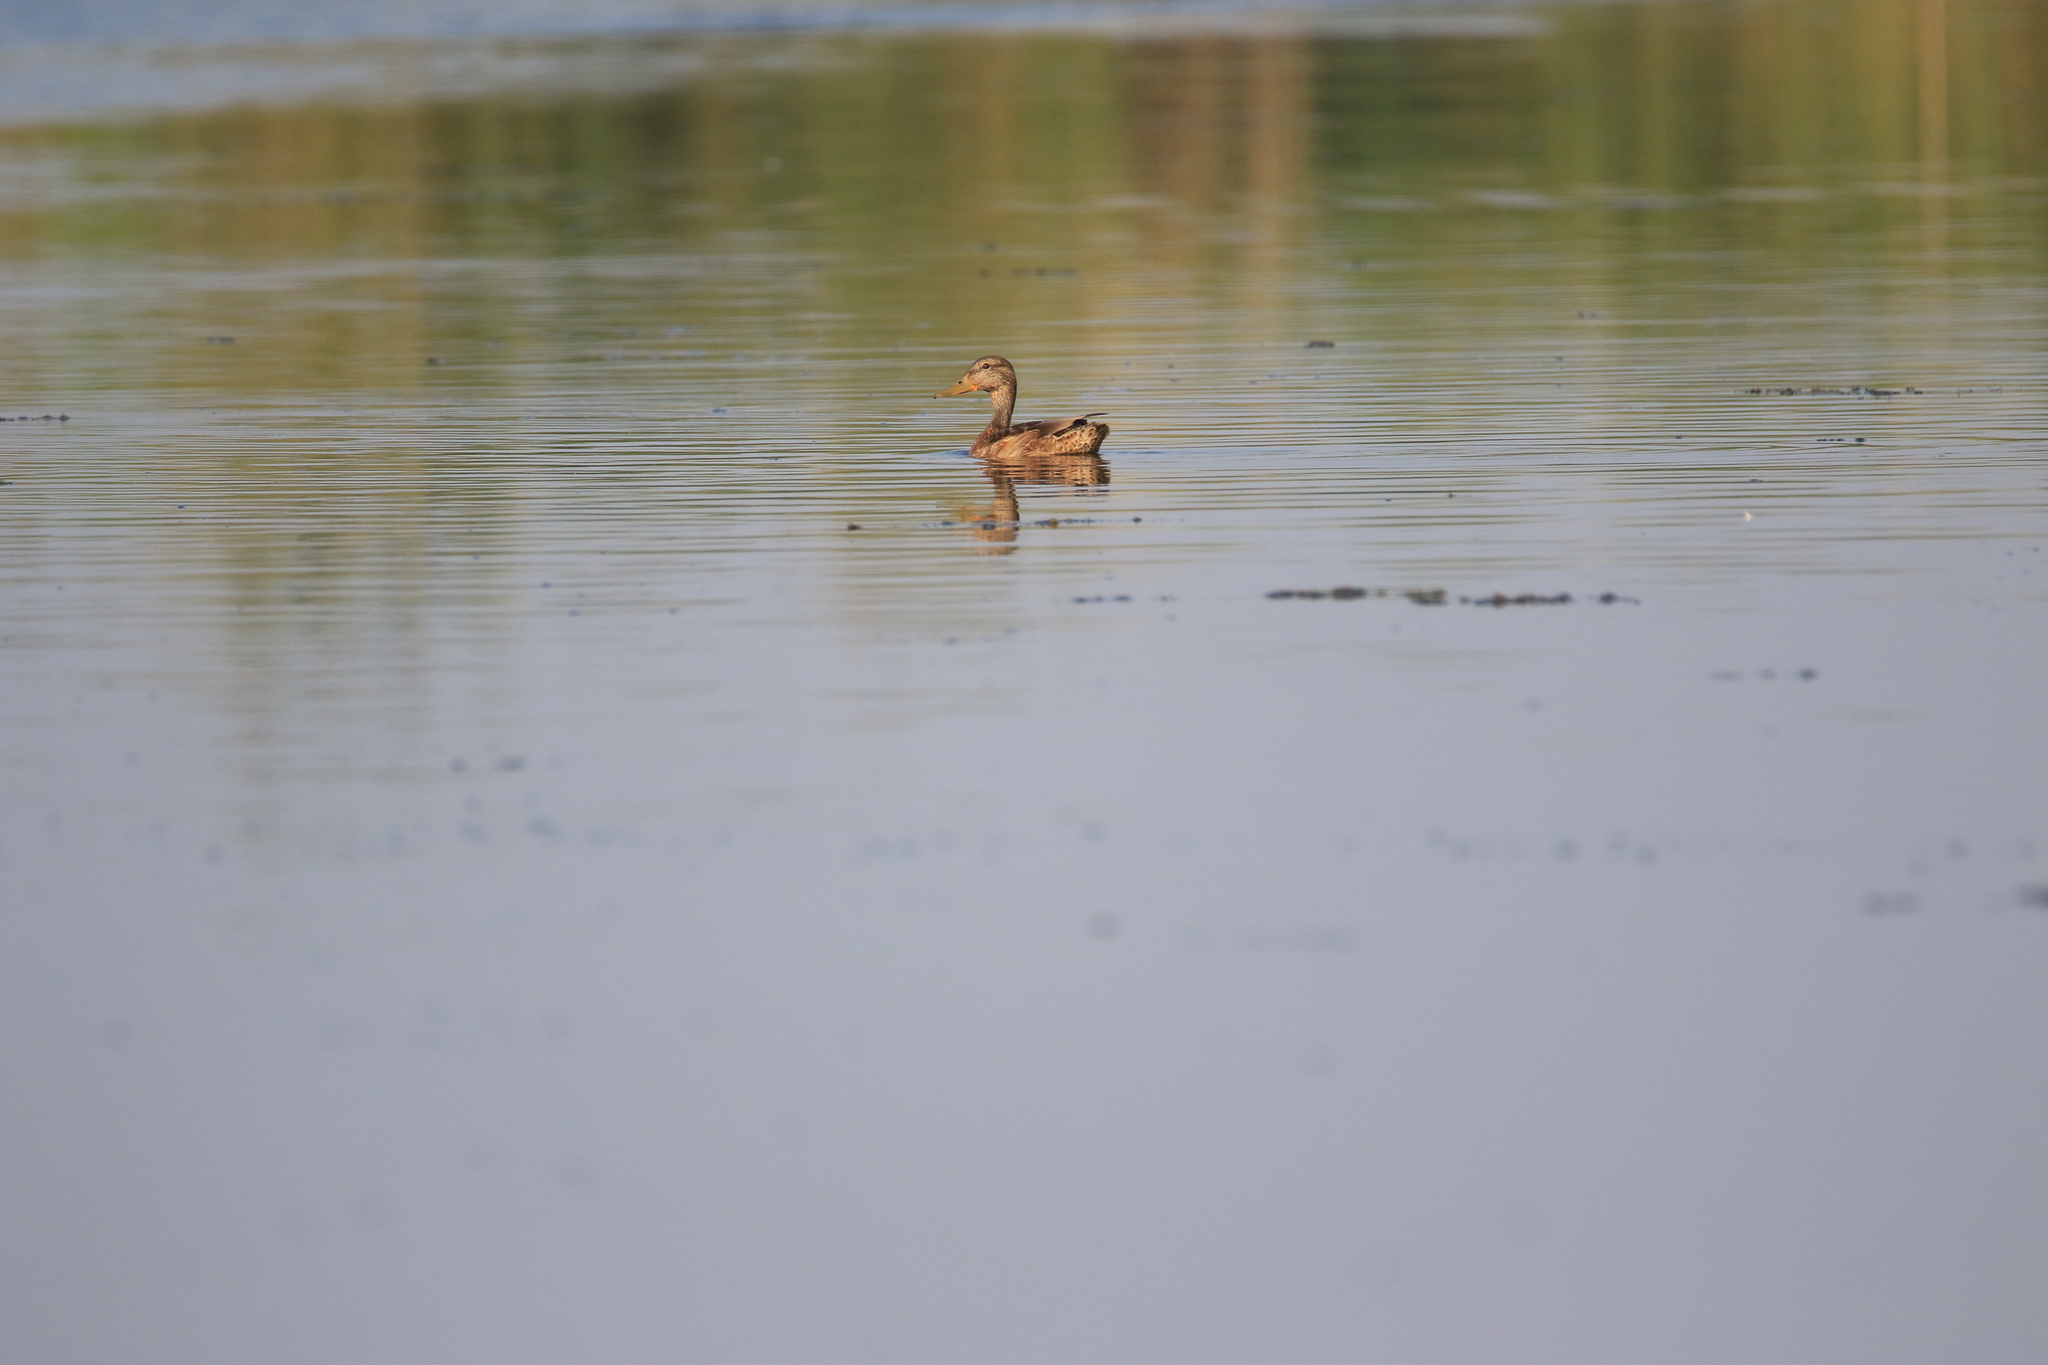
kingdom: Animalia
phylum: Chordata
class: Aves
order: Anseriformes
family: Anatidae
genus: Anas
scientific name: Anas platyrhynchos
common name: Mallard
